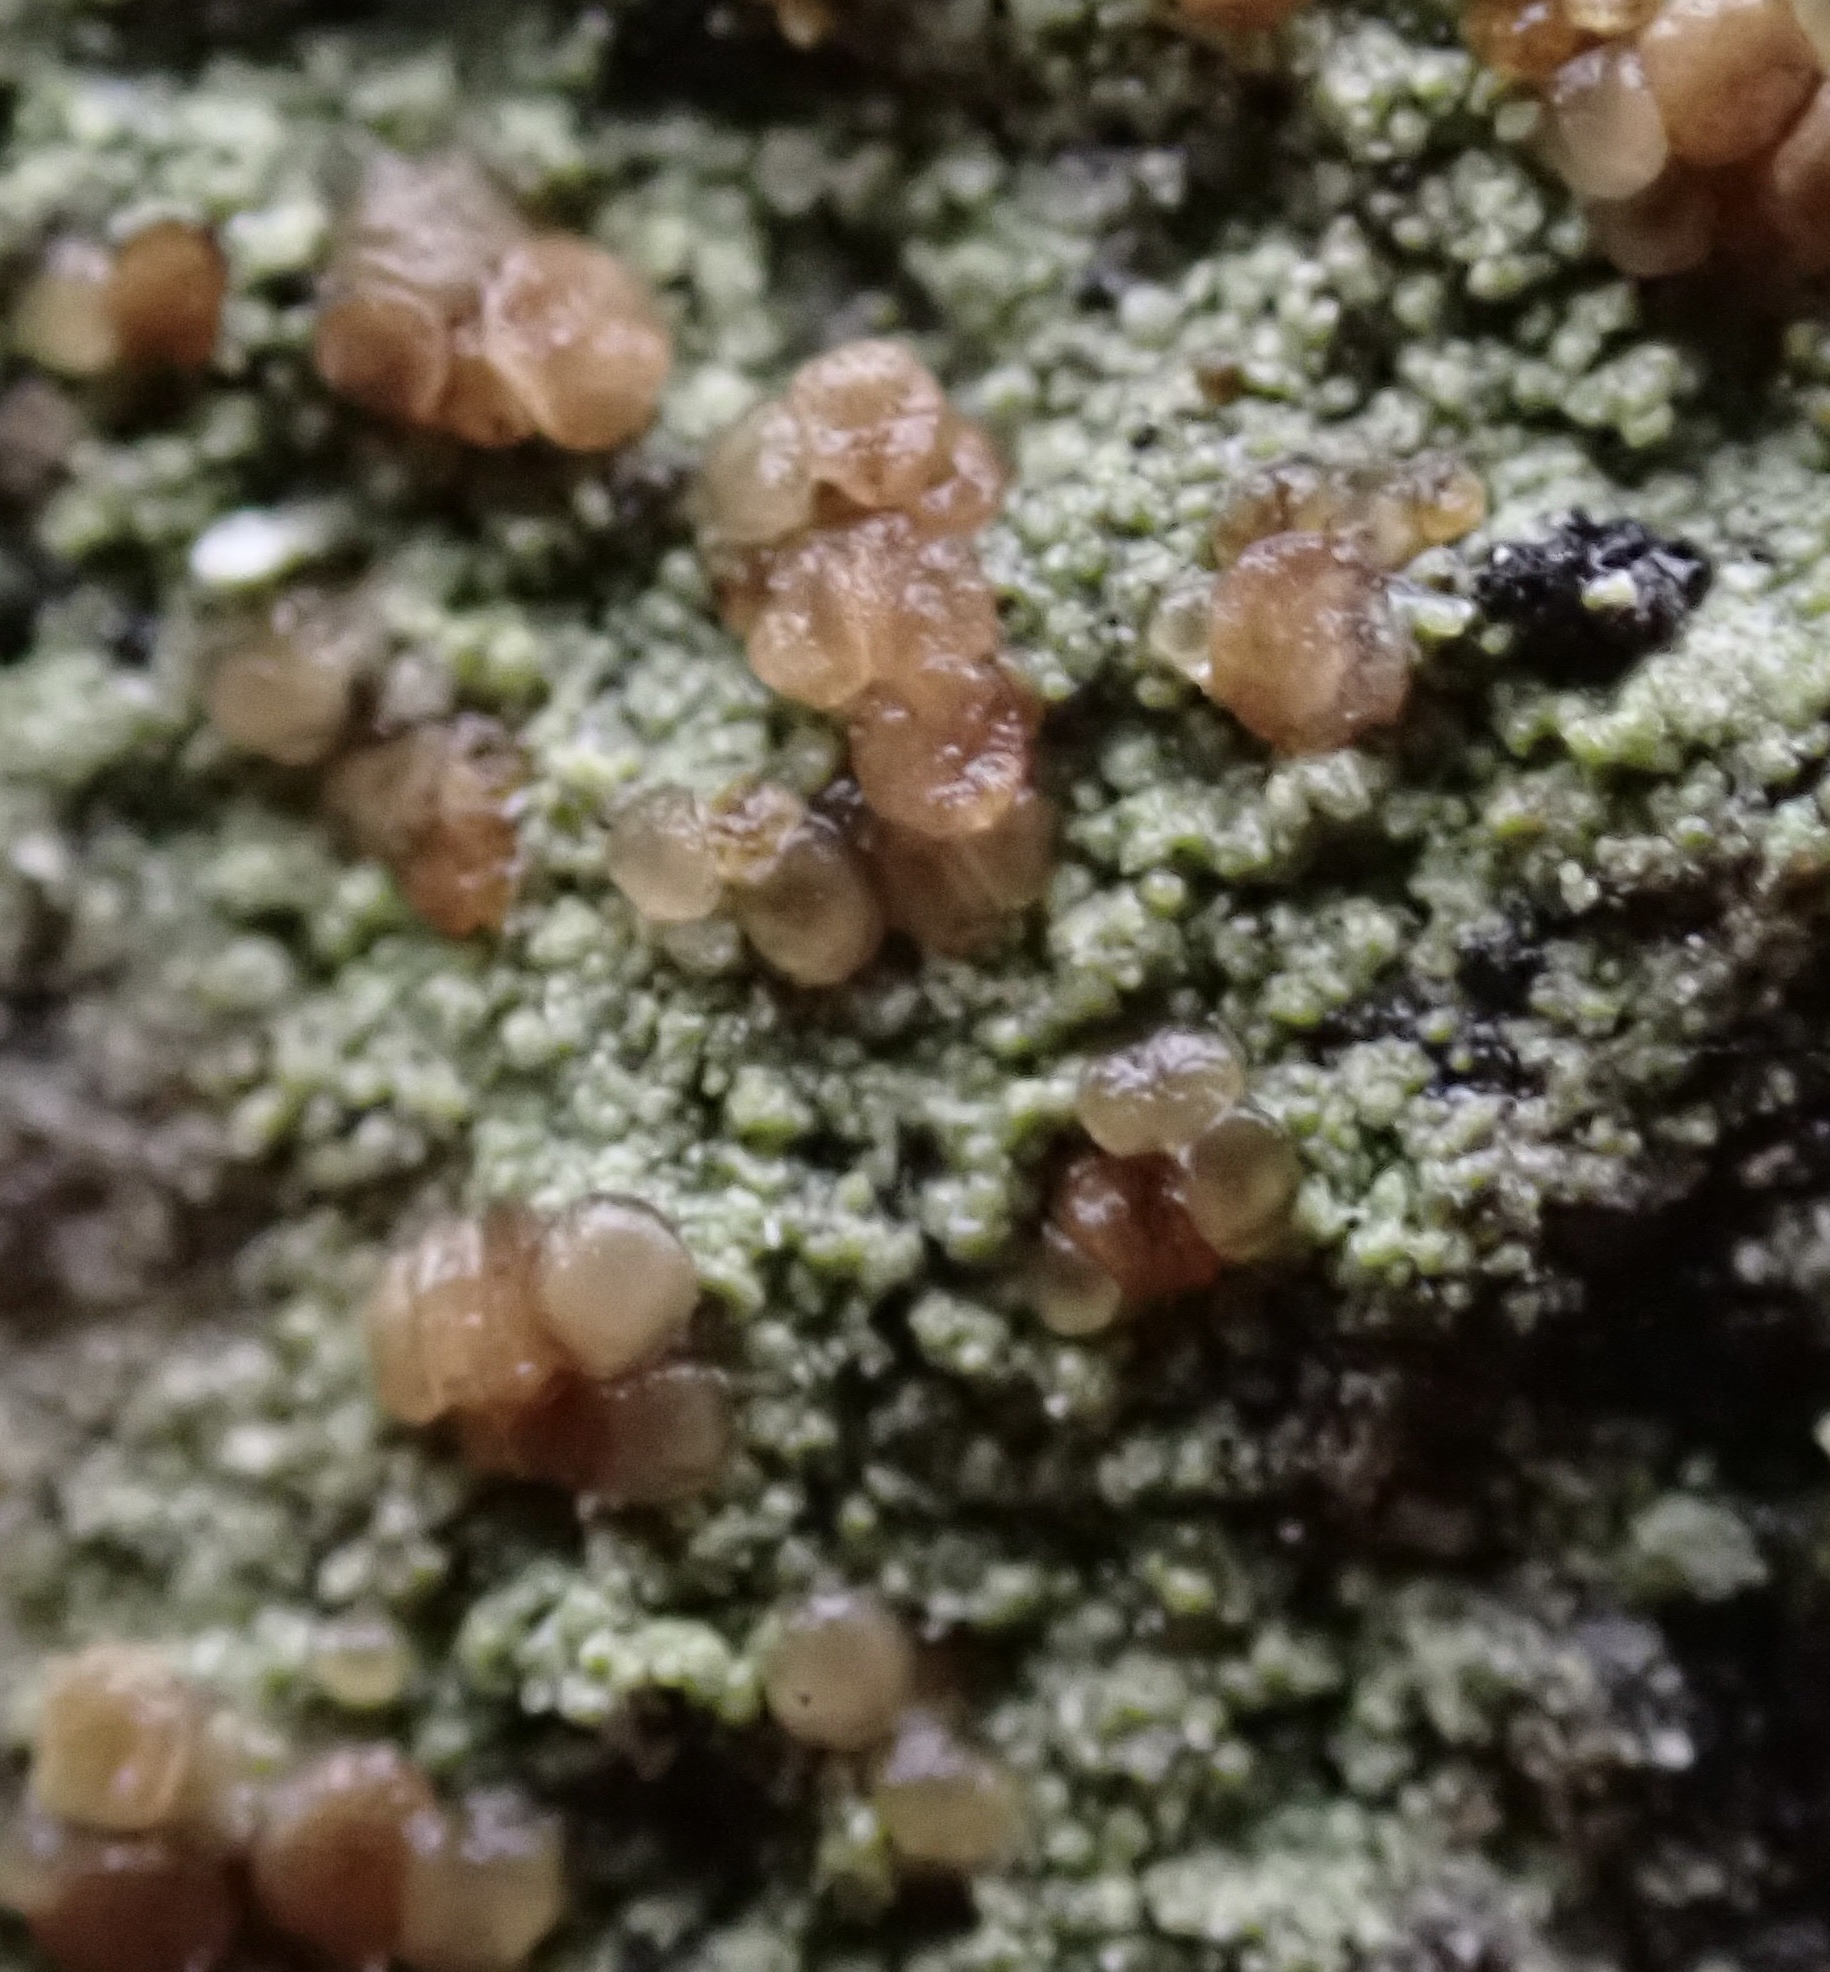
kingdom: Fungi
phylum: Ascomycota
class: Lecanoromycetes
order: Lecanorales
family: Lecanoraceae
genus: Traponora
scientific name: Traponora varians
